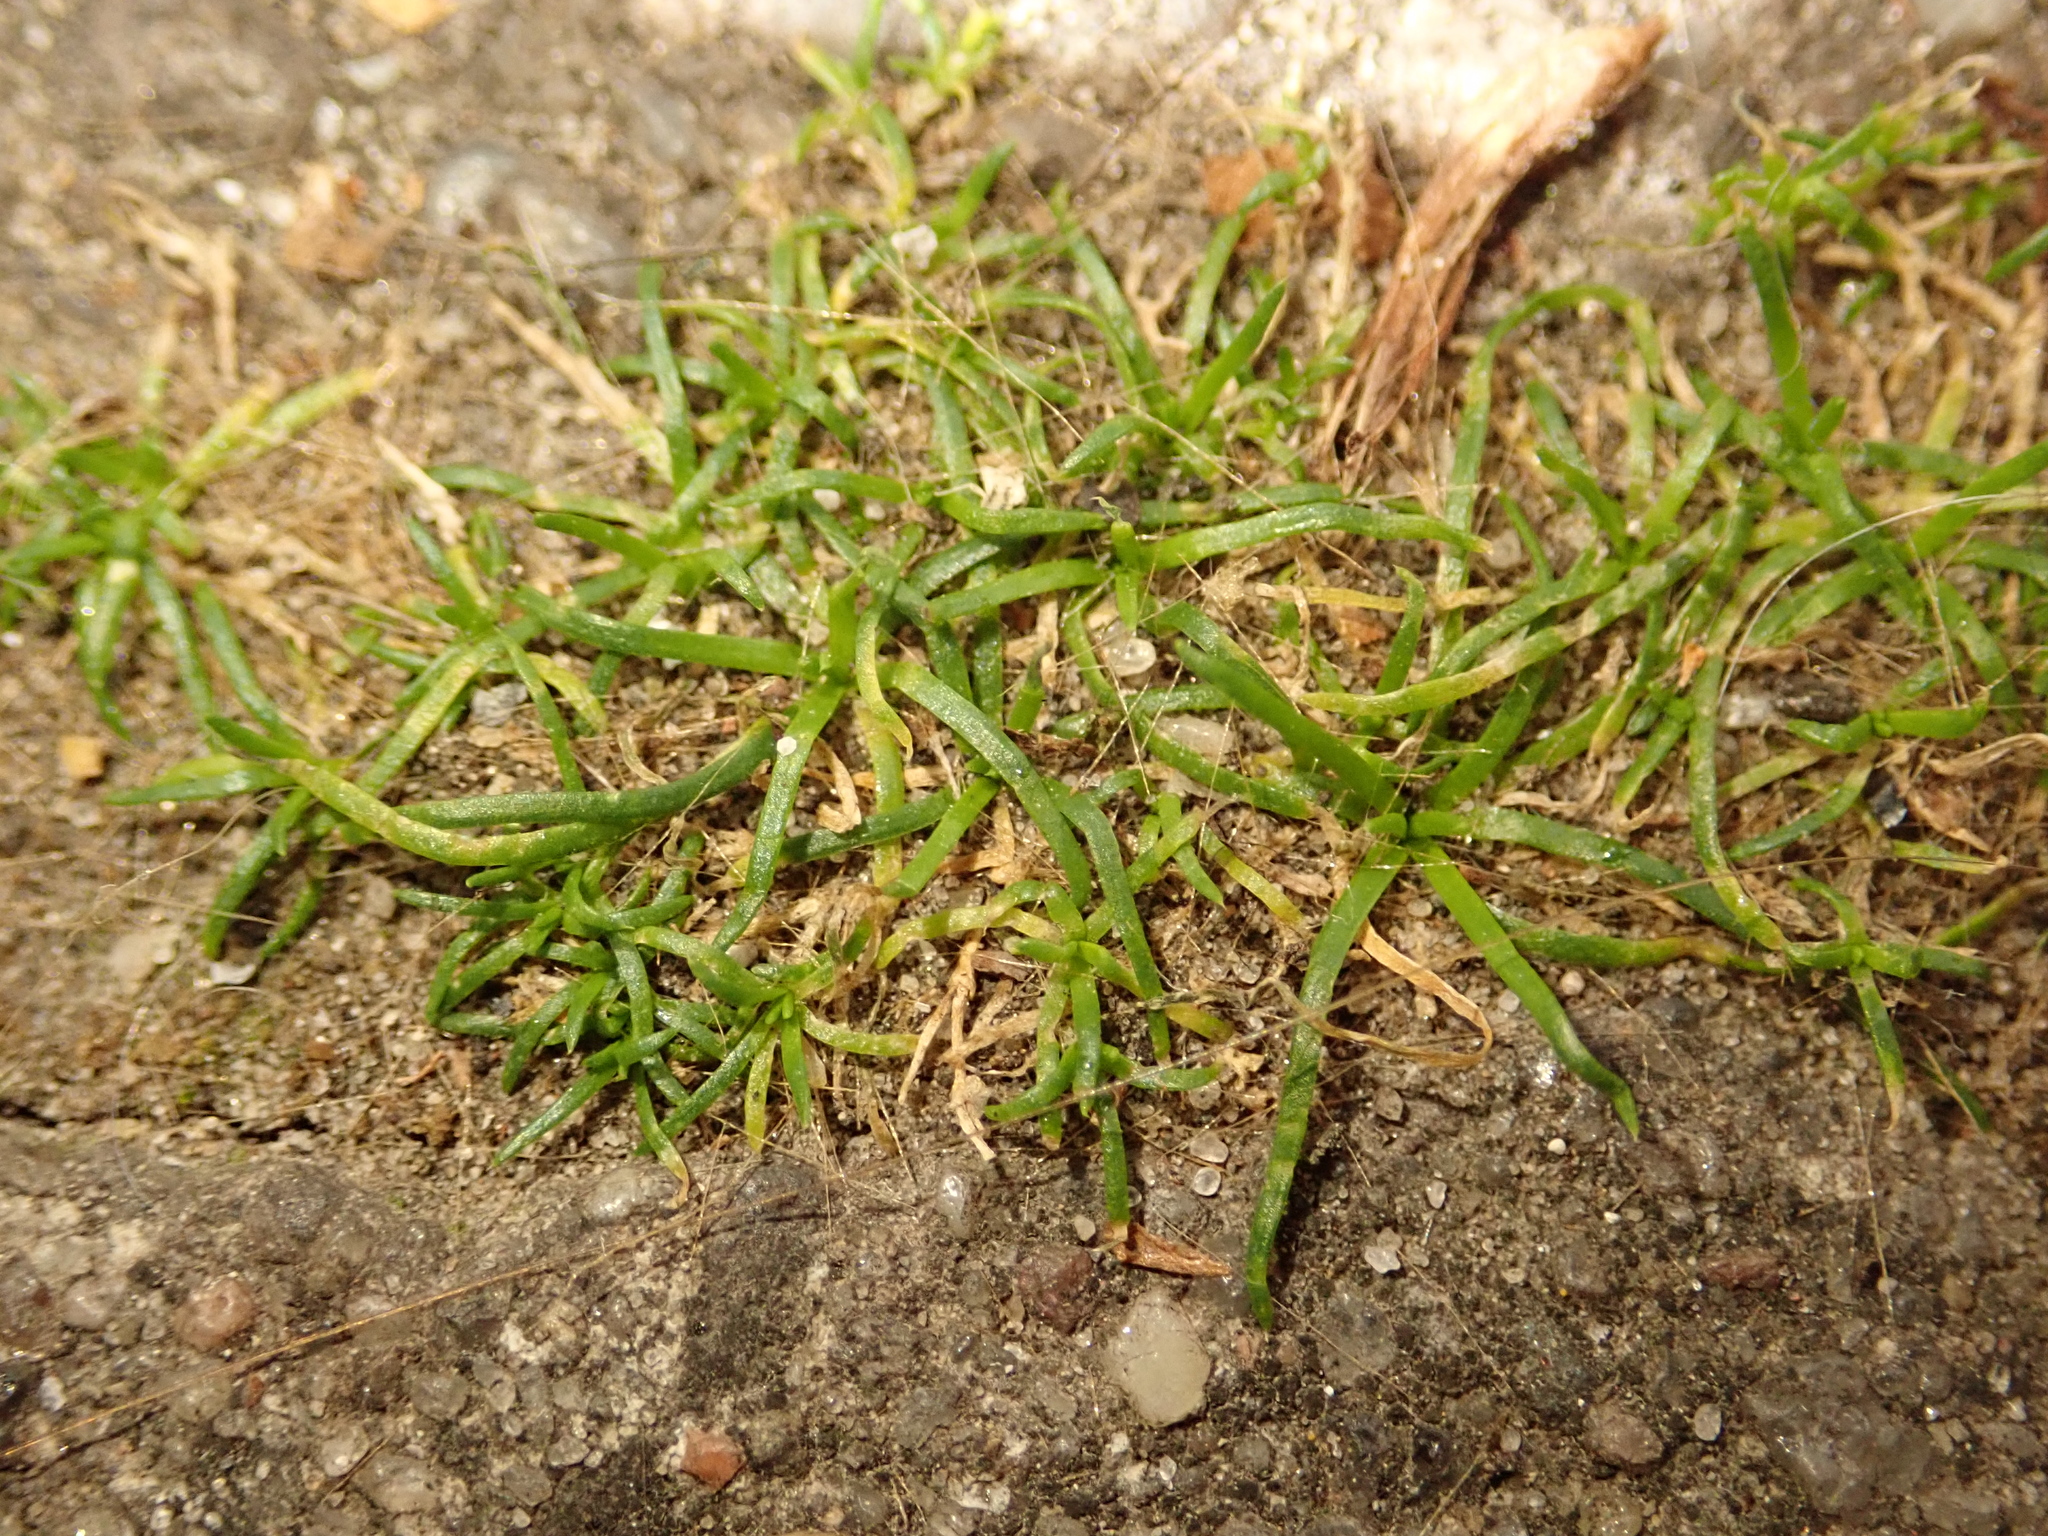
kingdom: Plantae
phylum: Tracheophyta
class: Magnoliopsida
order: Caryophyllales
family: Caryophyllaceae
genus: Sagina
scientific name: Sagina procumbens
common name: Procumbent pearlwort
